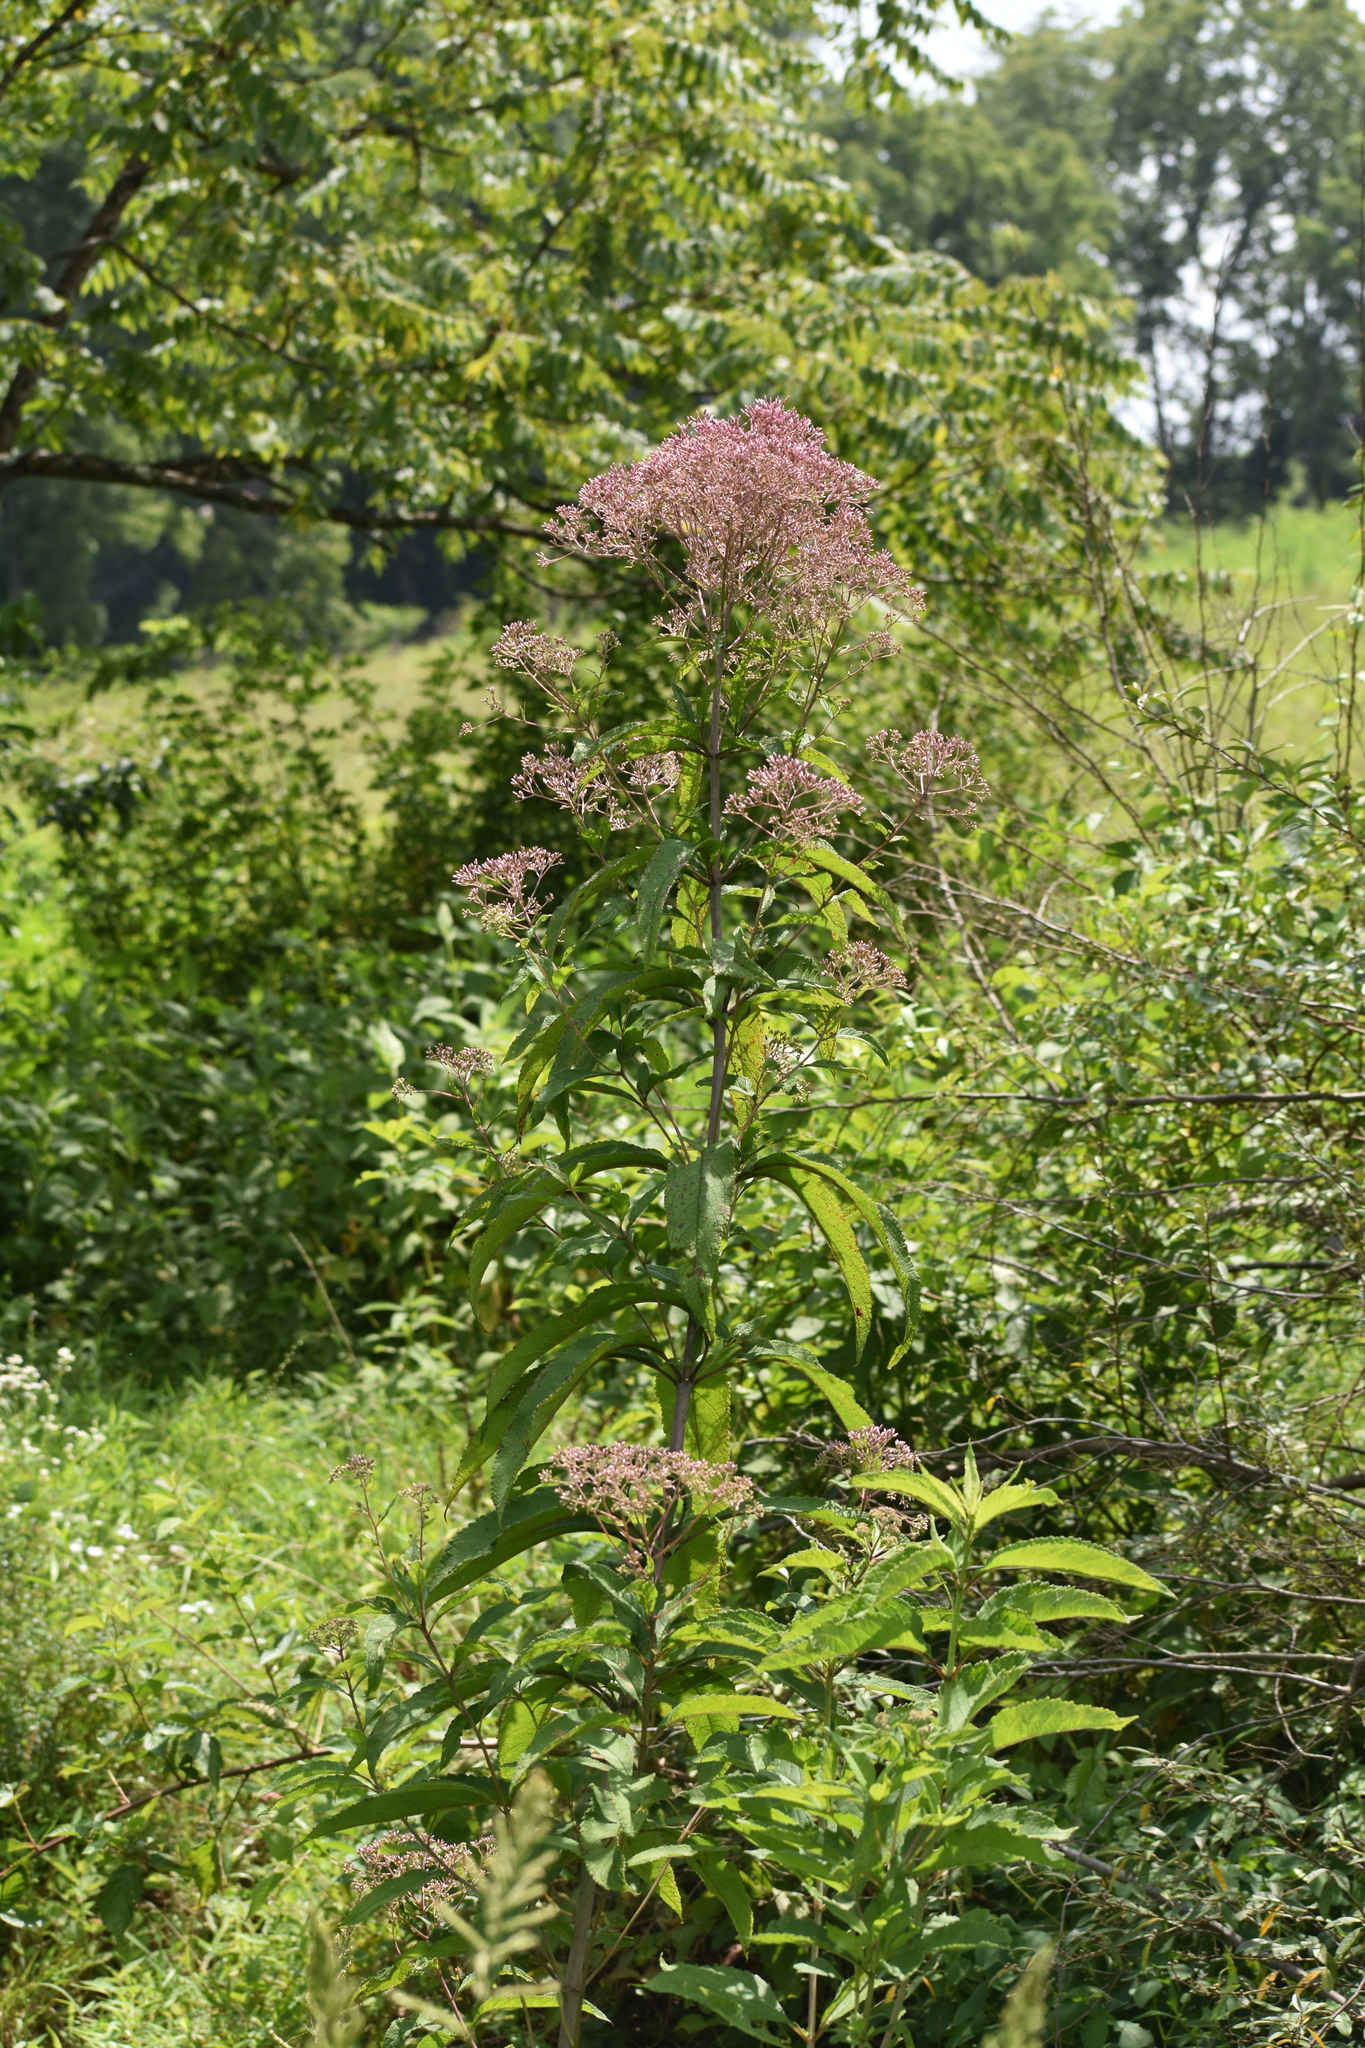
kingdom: Plantae
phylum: Tracheophyta
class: Magnoliopsida
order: Asterales
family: Asteraceae
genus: Eutrochium
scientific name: Eutrochium fistulosum
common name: Trumpetweed
